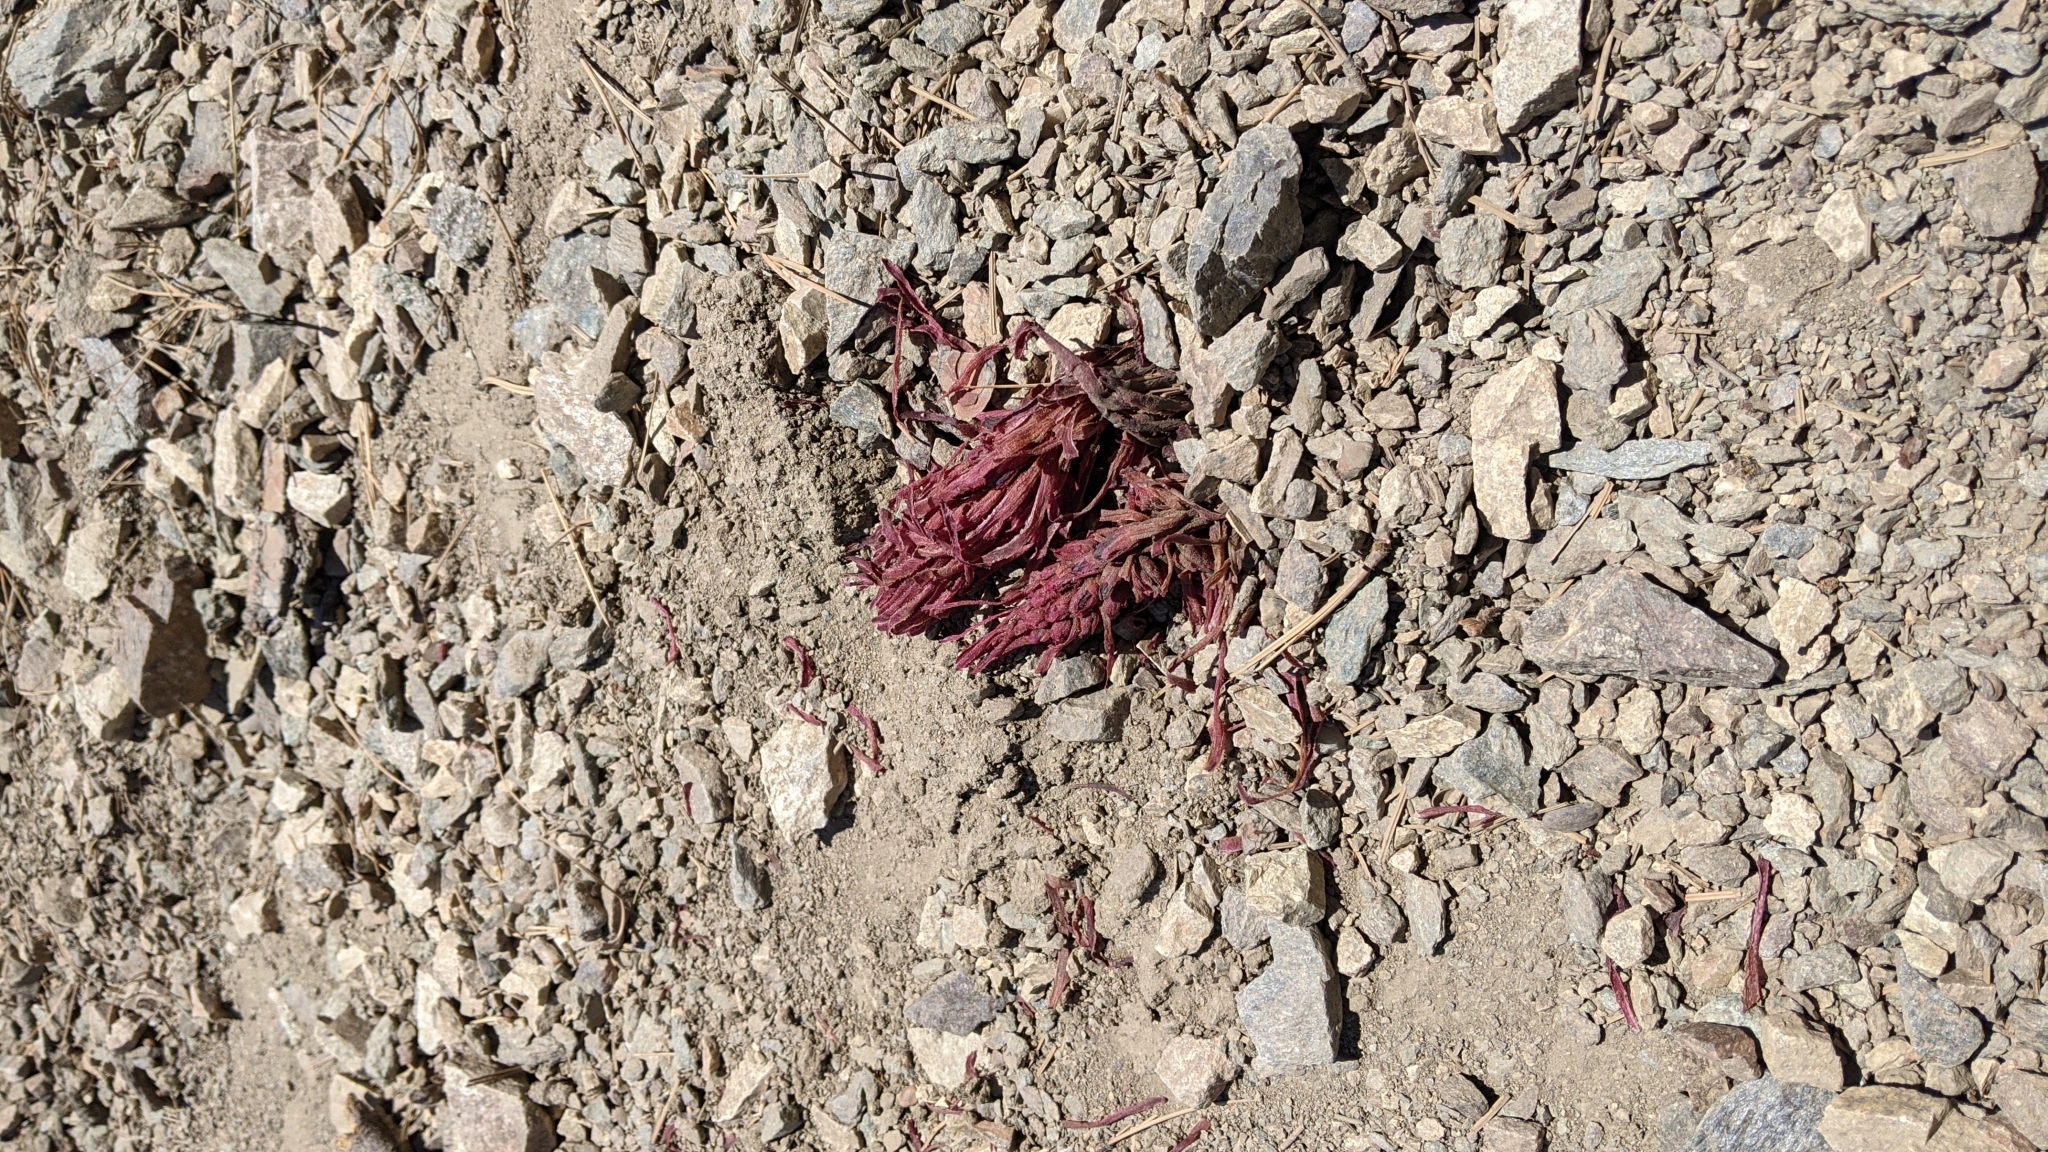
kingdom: Plantae
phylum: Tracheophyta
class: Magnoliopsida
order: Ericales
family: Ericaceae
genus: Sarcodes
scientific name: Sarcodes sanguinea
